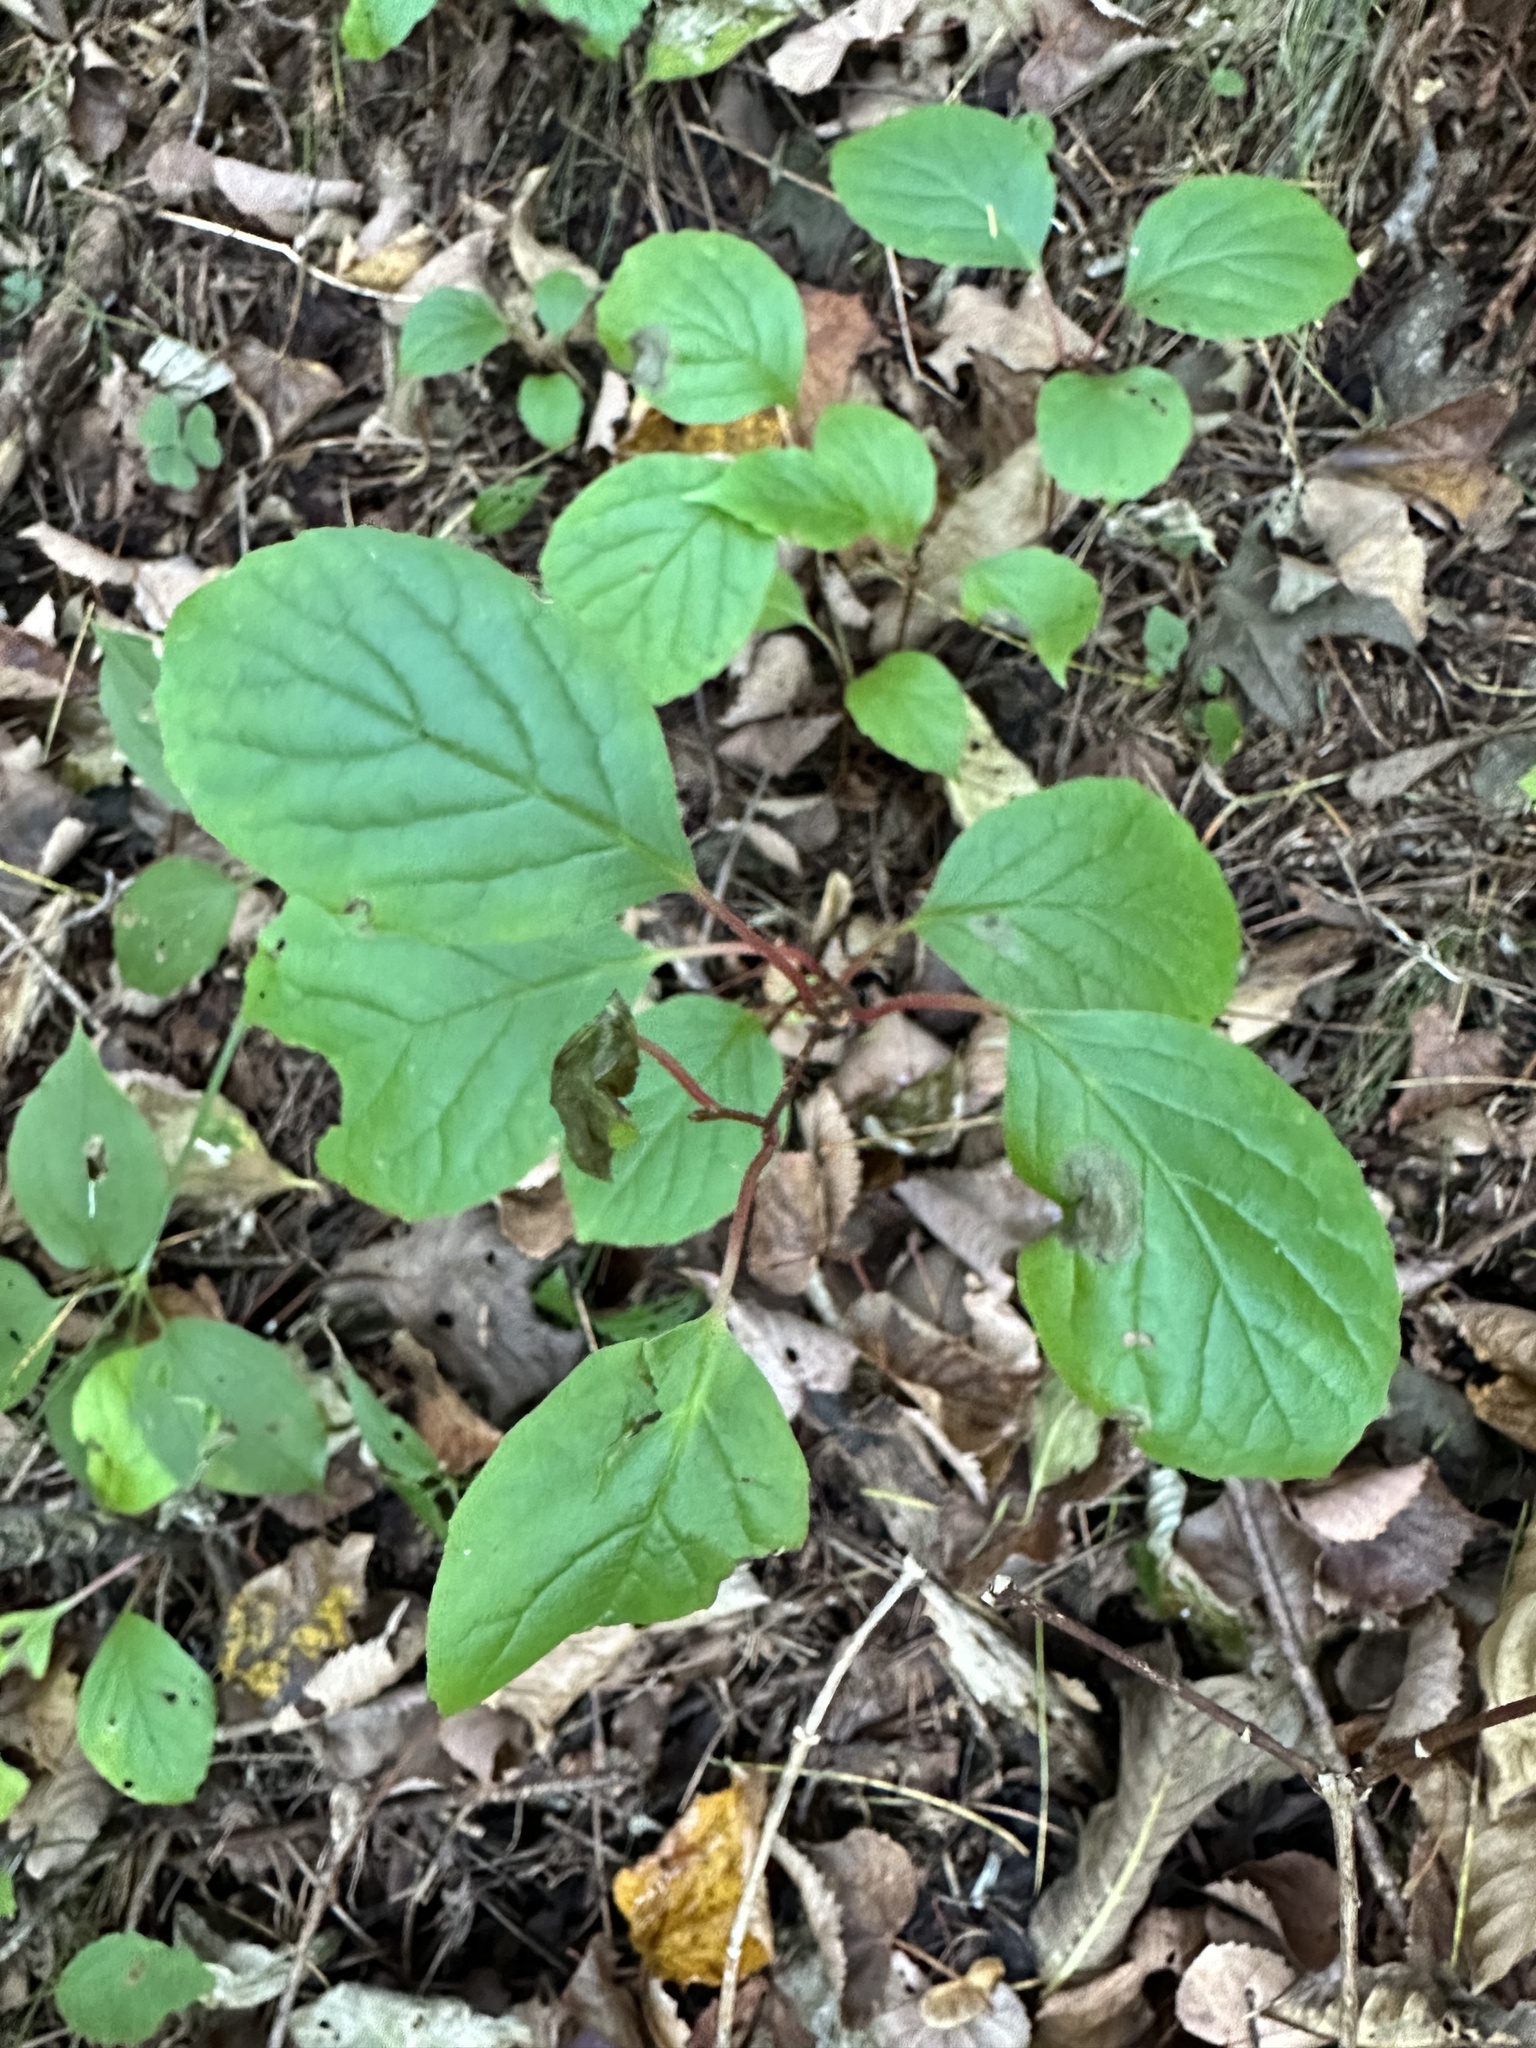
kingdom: Plantae
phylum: Tracheophyta
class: Magnoliopsida
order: Austrobaileyales
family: Schisandraceae
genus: Schisandra
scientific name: Schisandra chinensis
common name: Magnolia-vine
